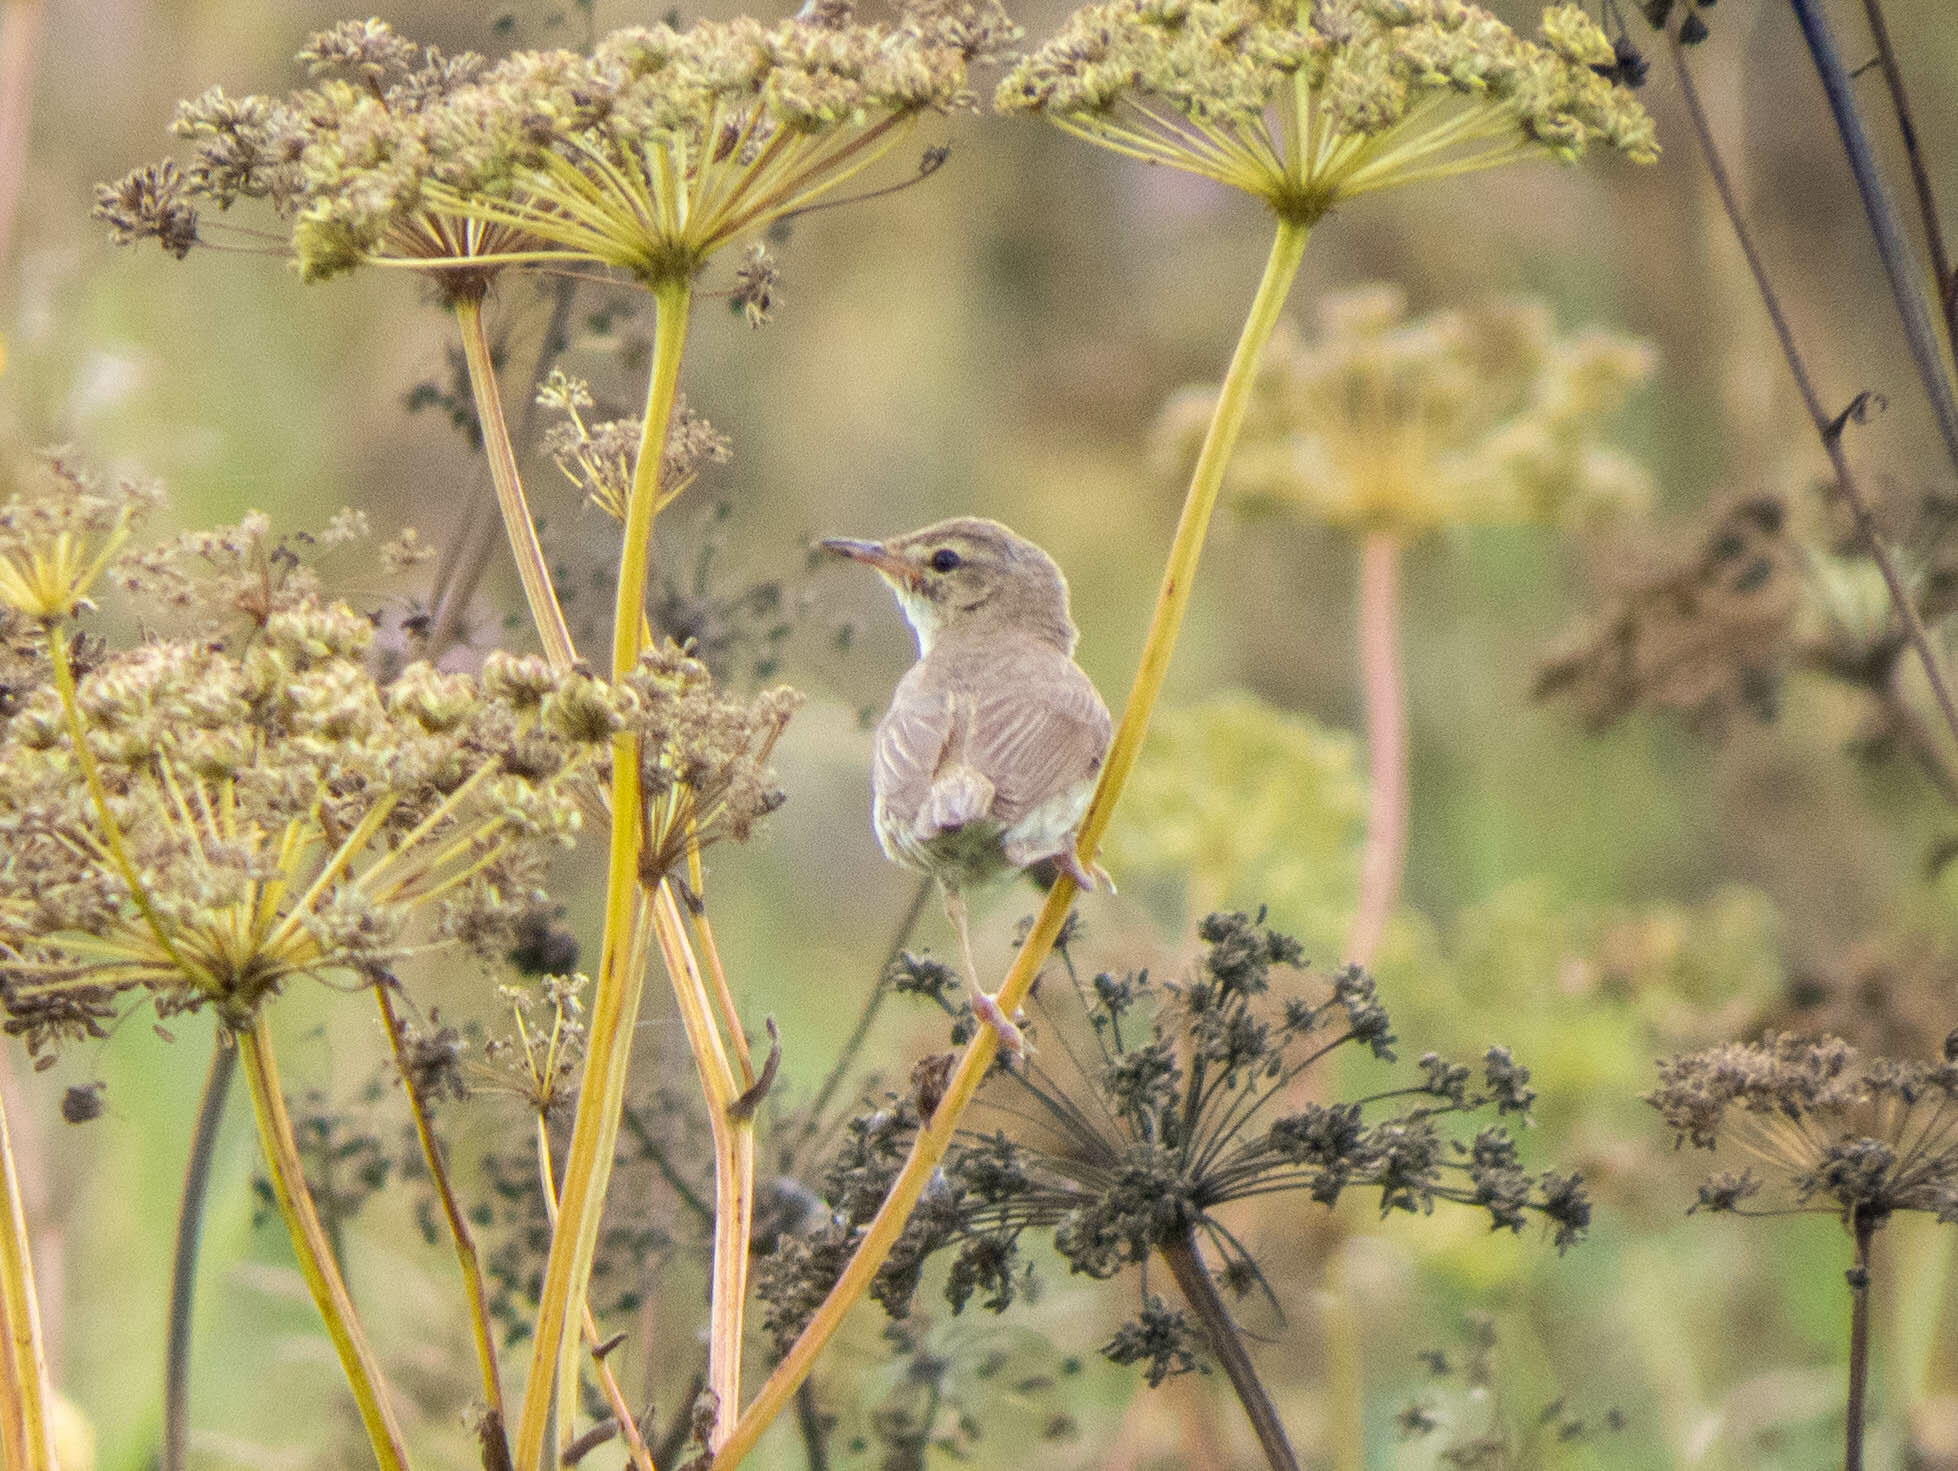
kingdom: Animalia
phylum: Chordata
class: Aves
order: Passeriformes
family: Acrocephalidae
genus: Iduna
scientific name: Iduna caligata
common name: Booted warbler
